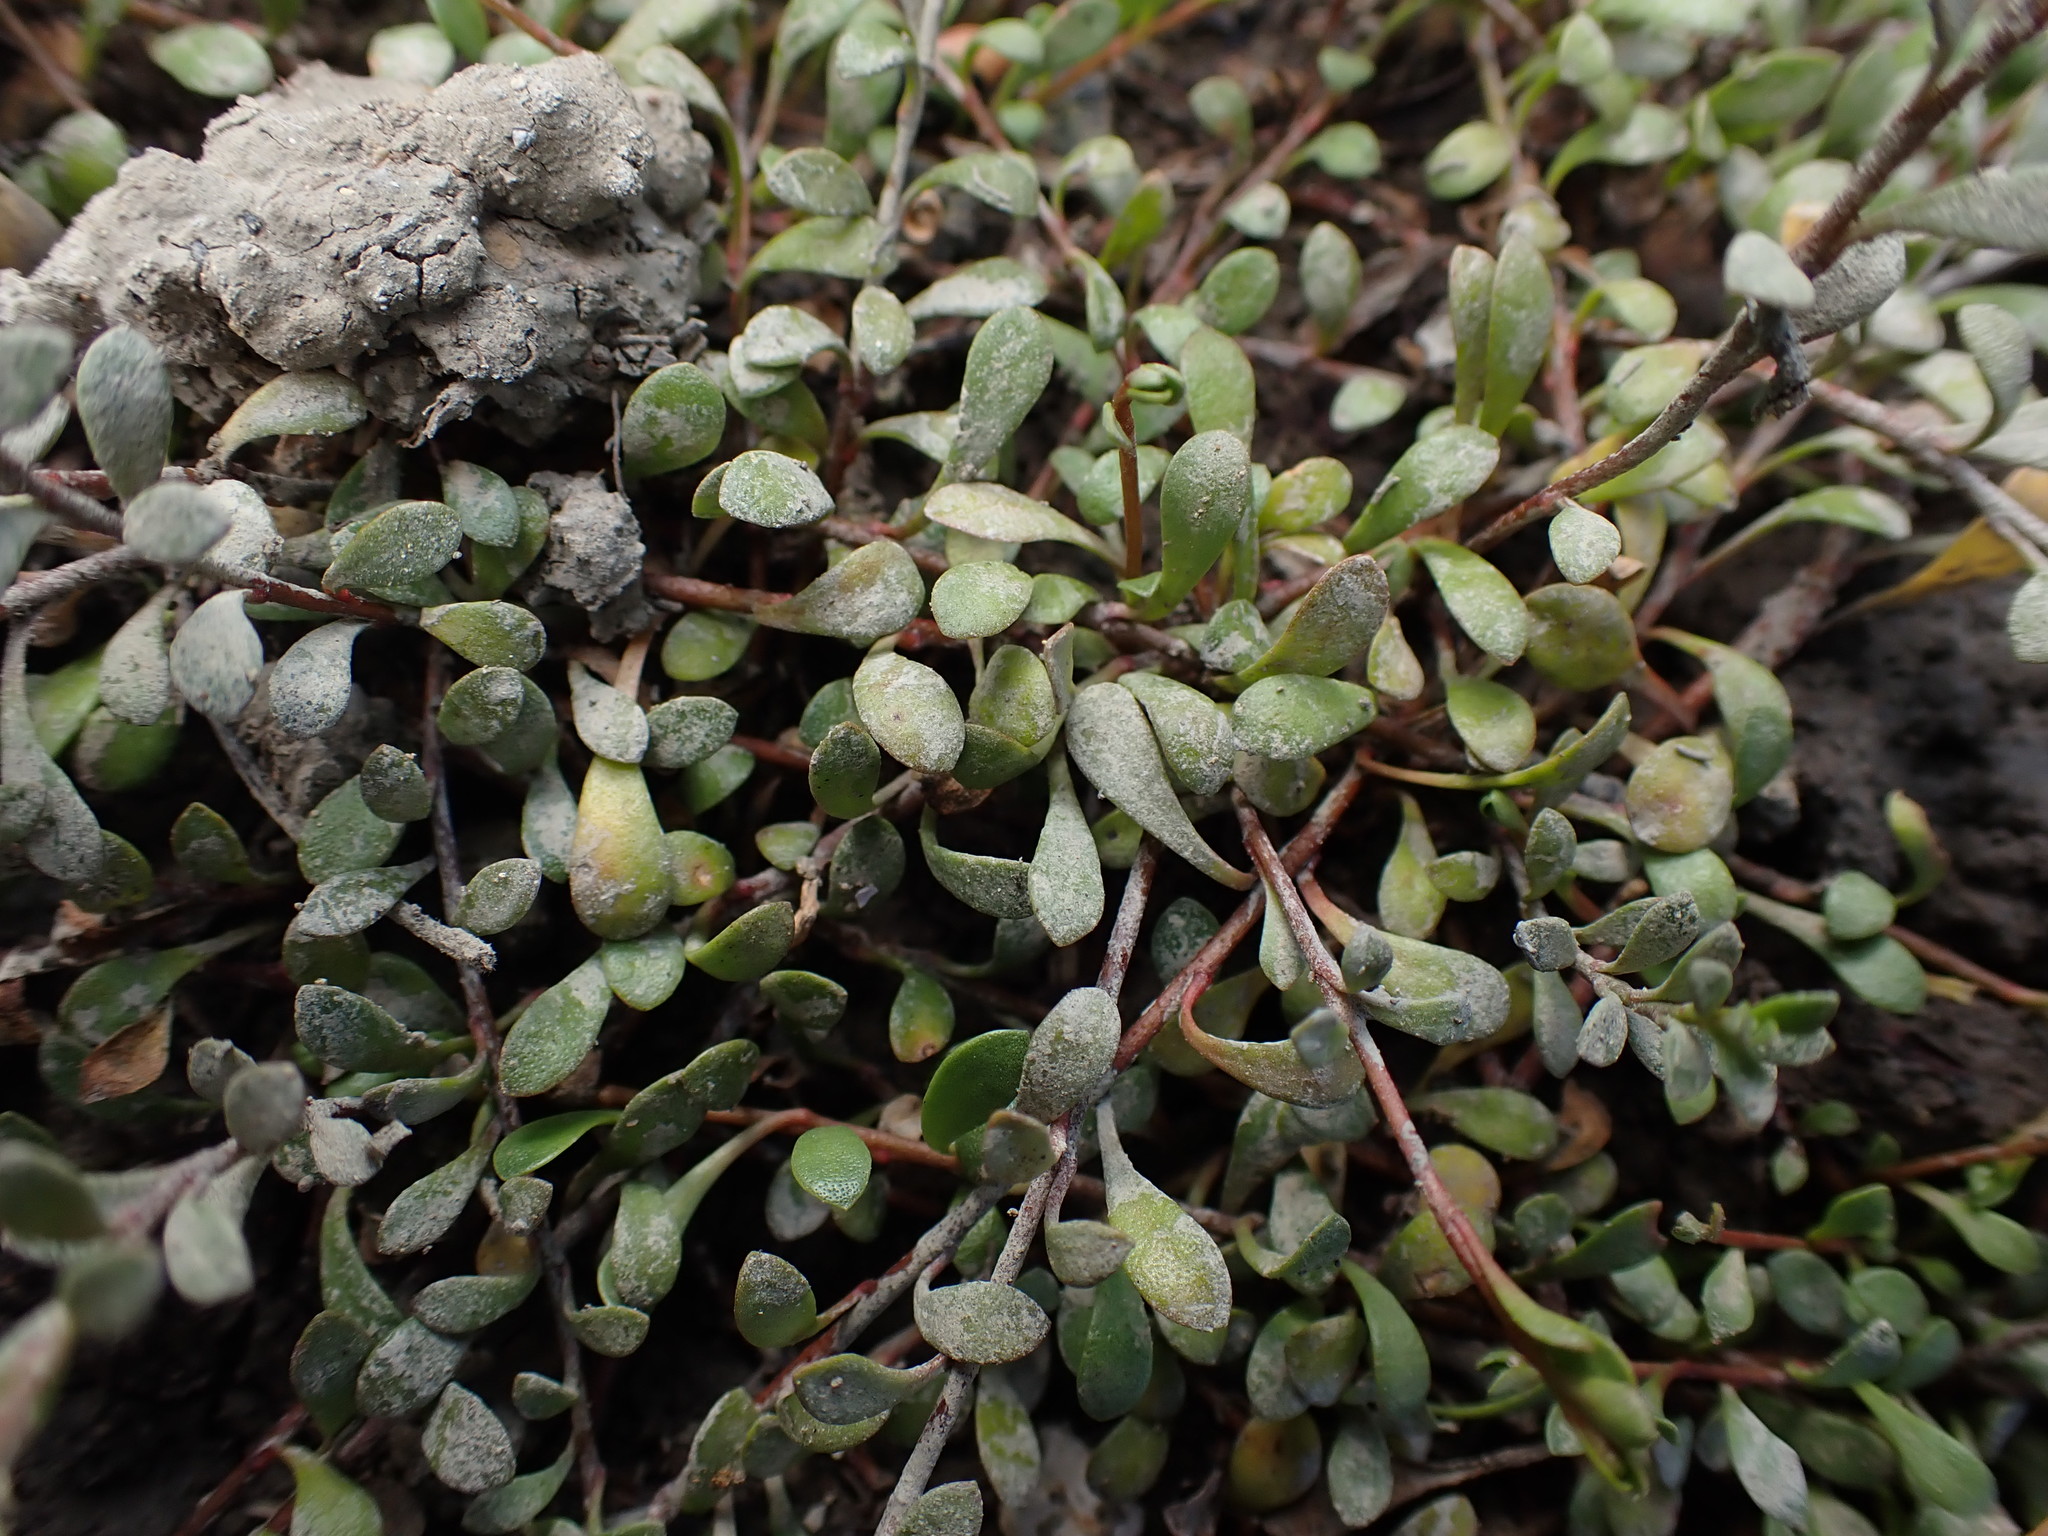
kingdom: Plantae
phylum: Tracheophyta
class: Magnoliopsida
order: Ericales
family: Primulaceae
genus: Samolus
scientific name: Samolus repens
